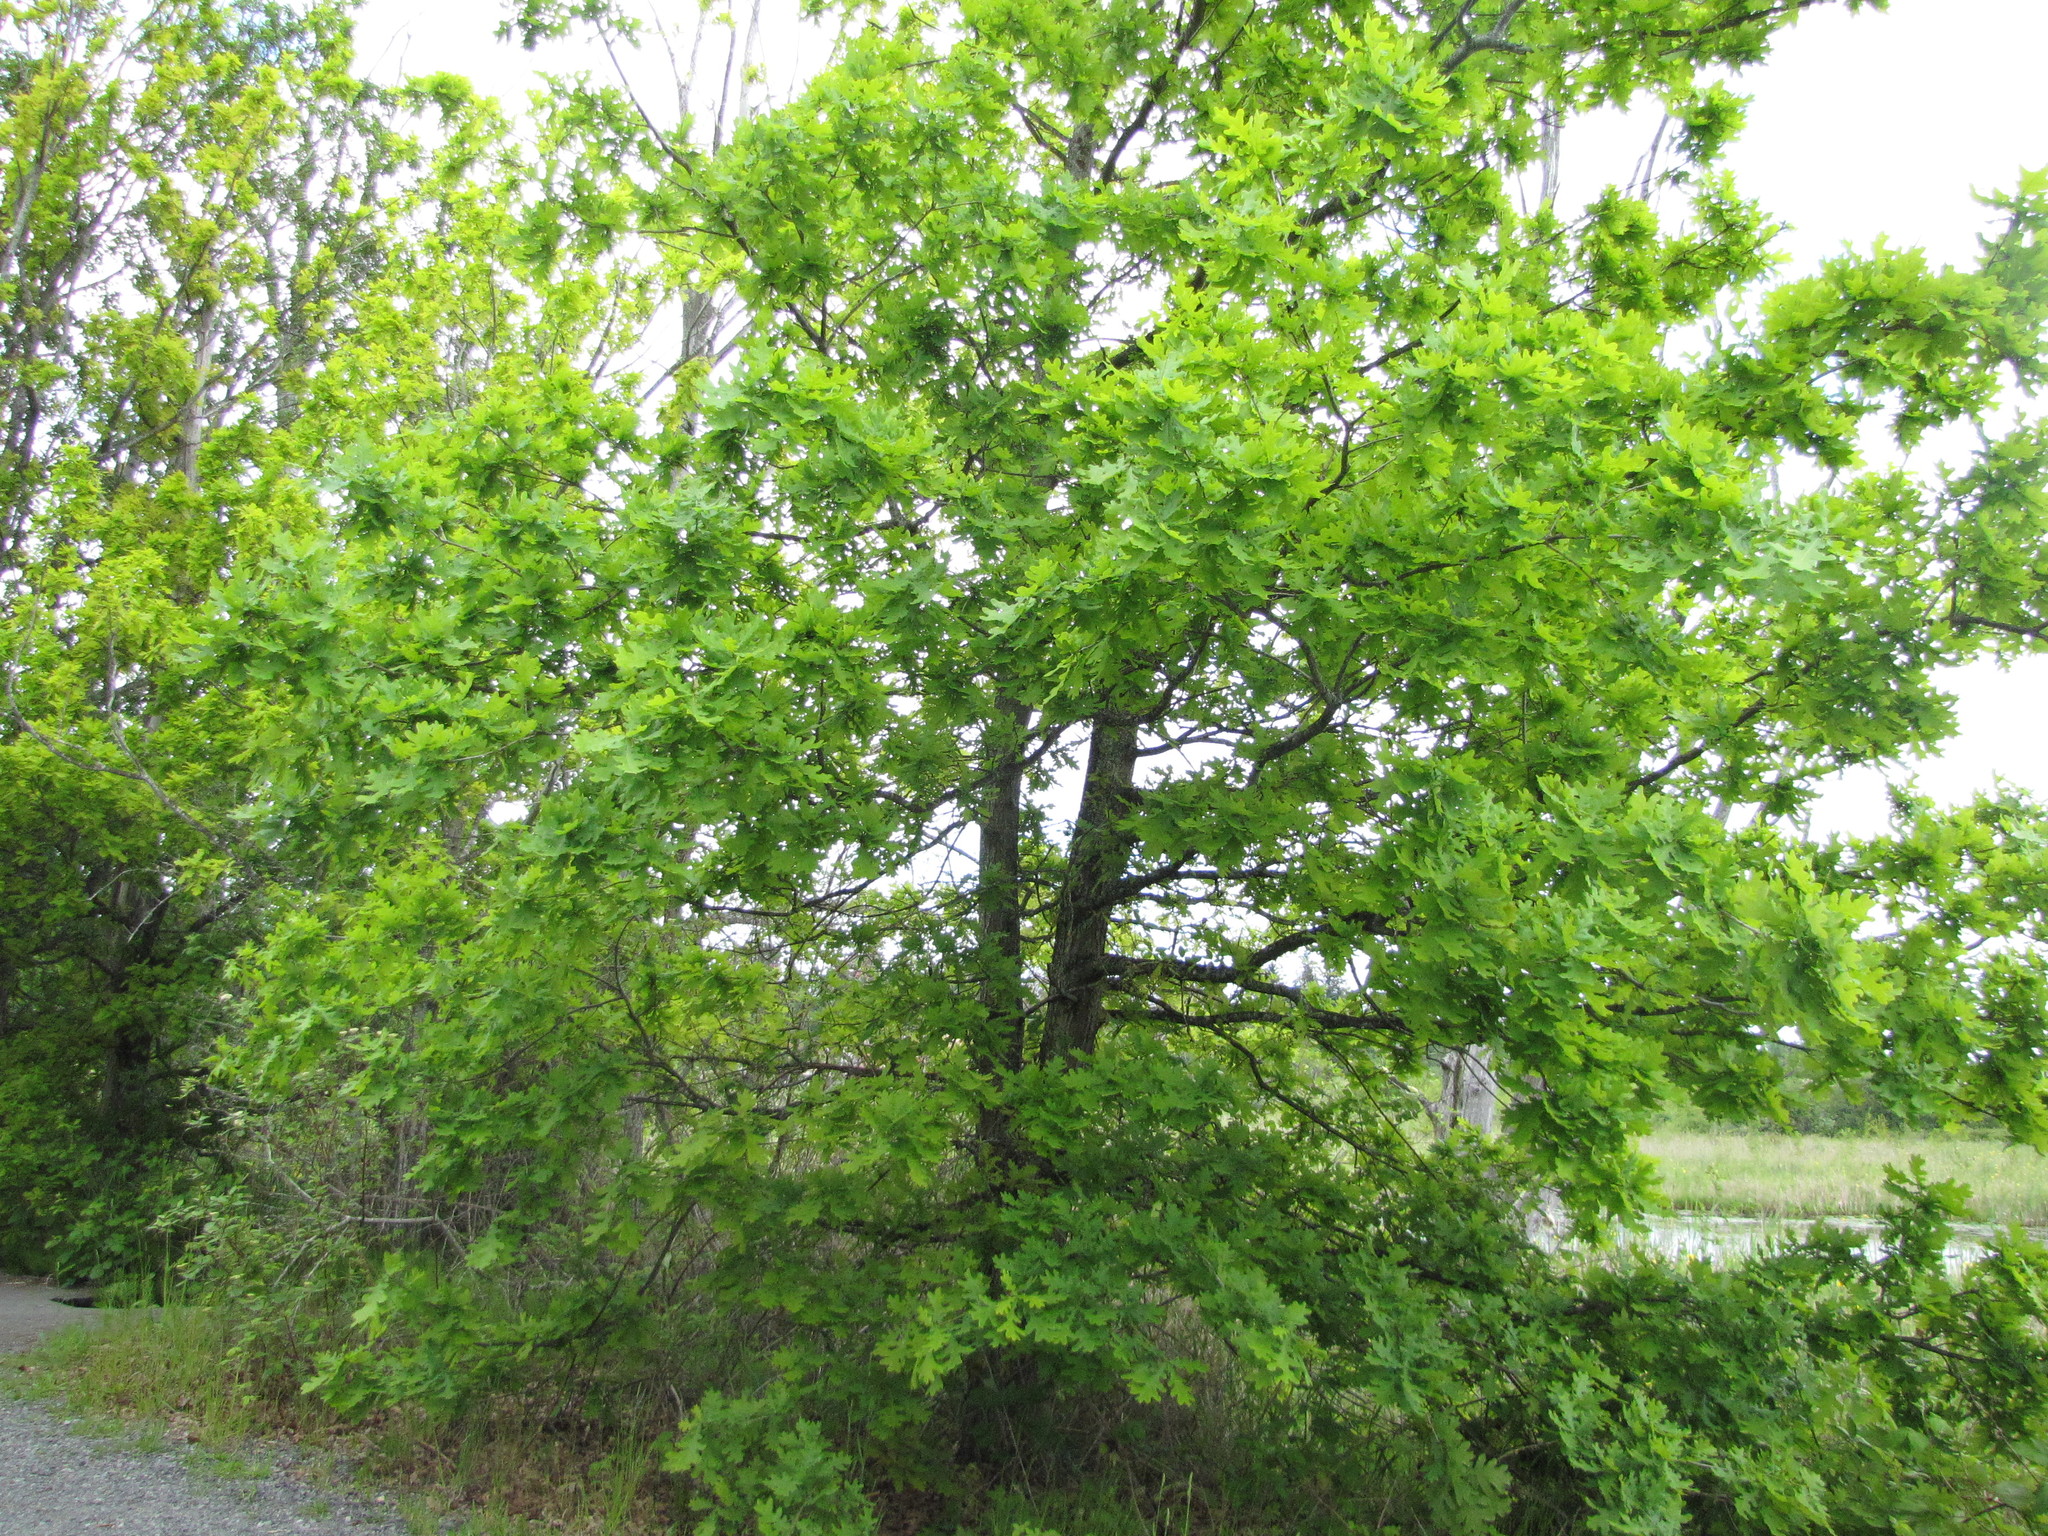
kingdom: Plantae
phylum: Tracheophyta
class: Magnoliopsida
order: Fagales
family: Fagaceae
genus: Quercus
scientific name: Quercus robur
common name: Pedunculate oak
